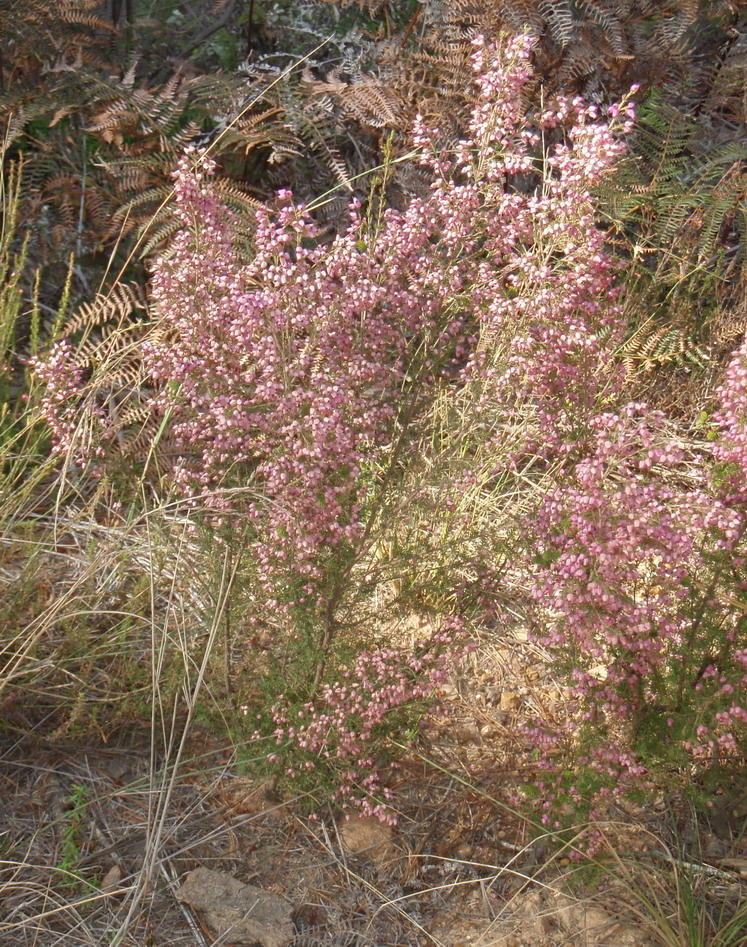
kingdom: Plantae
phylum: Tracheophyta
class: Magnoliopsida
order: Ericales
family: Ericaceae
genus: Erica
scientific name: Erica nutans
